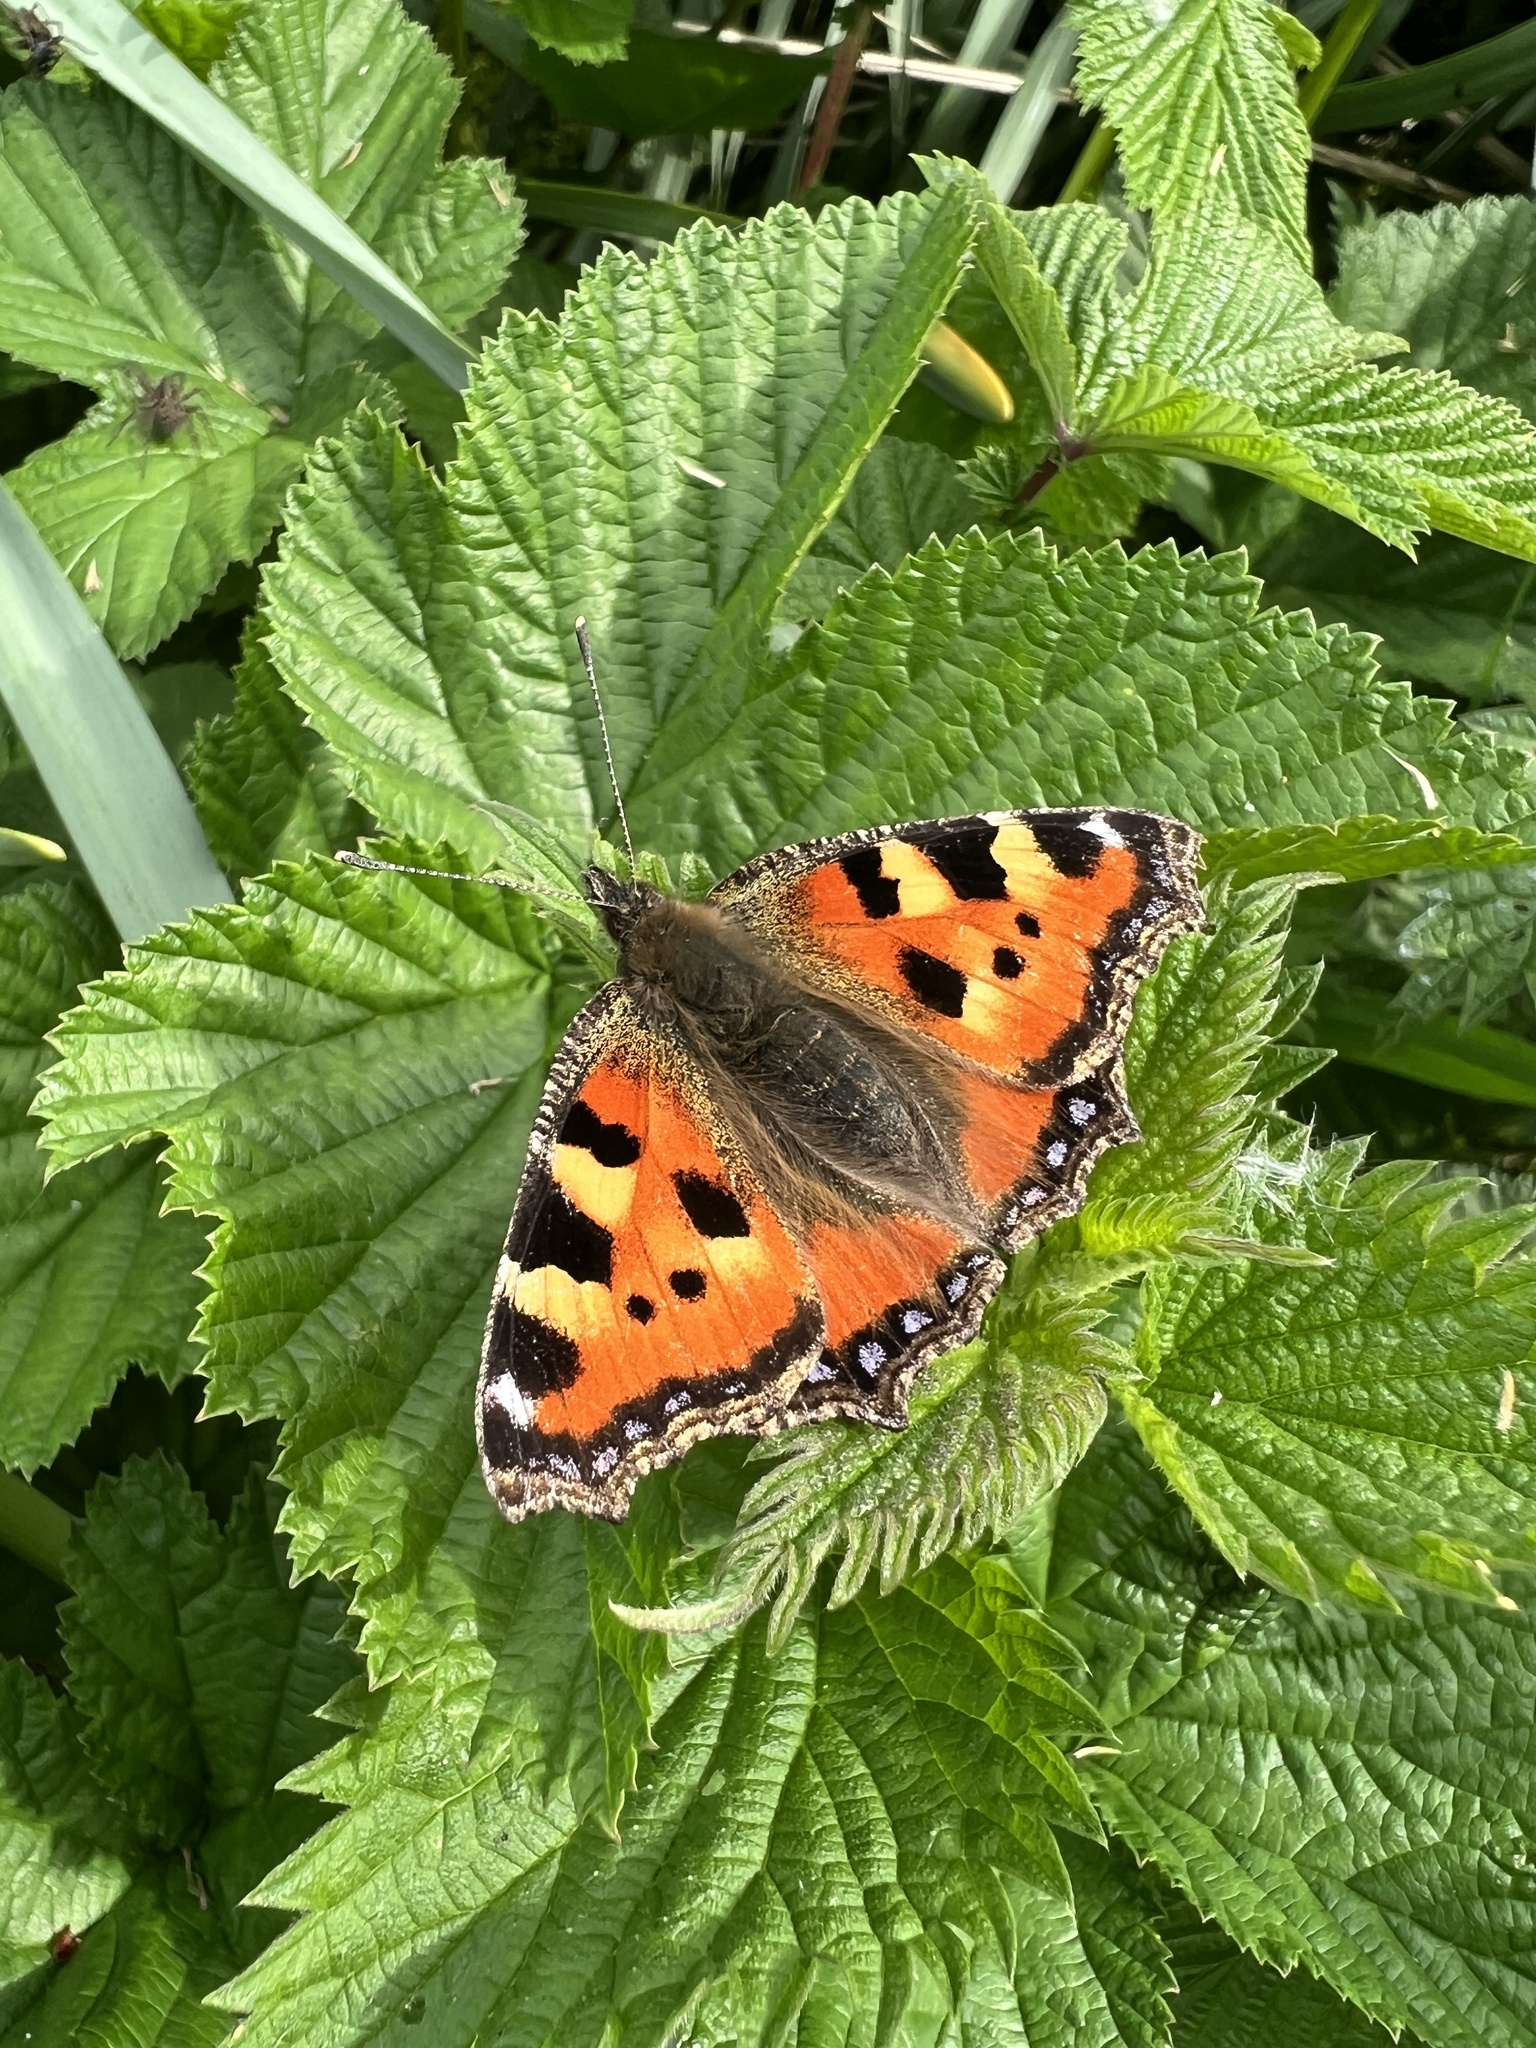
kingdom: Animalia
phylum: Arthropoda
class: Insecta
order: Lepidoptera
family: Nymphalidae
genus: Aglais
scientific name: Aglais urticae
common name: Small tortoiseshell
